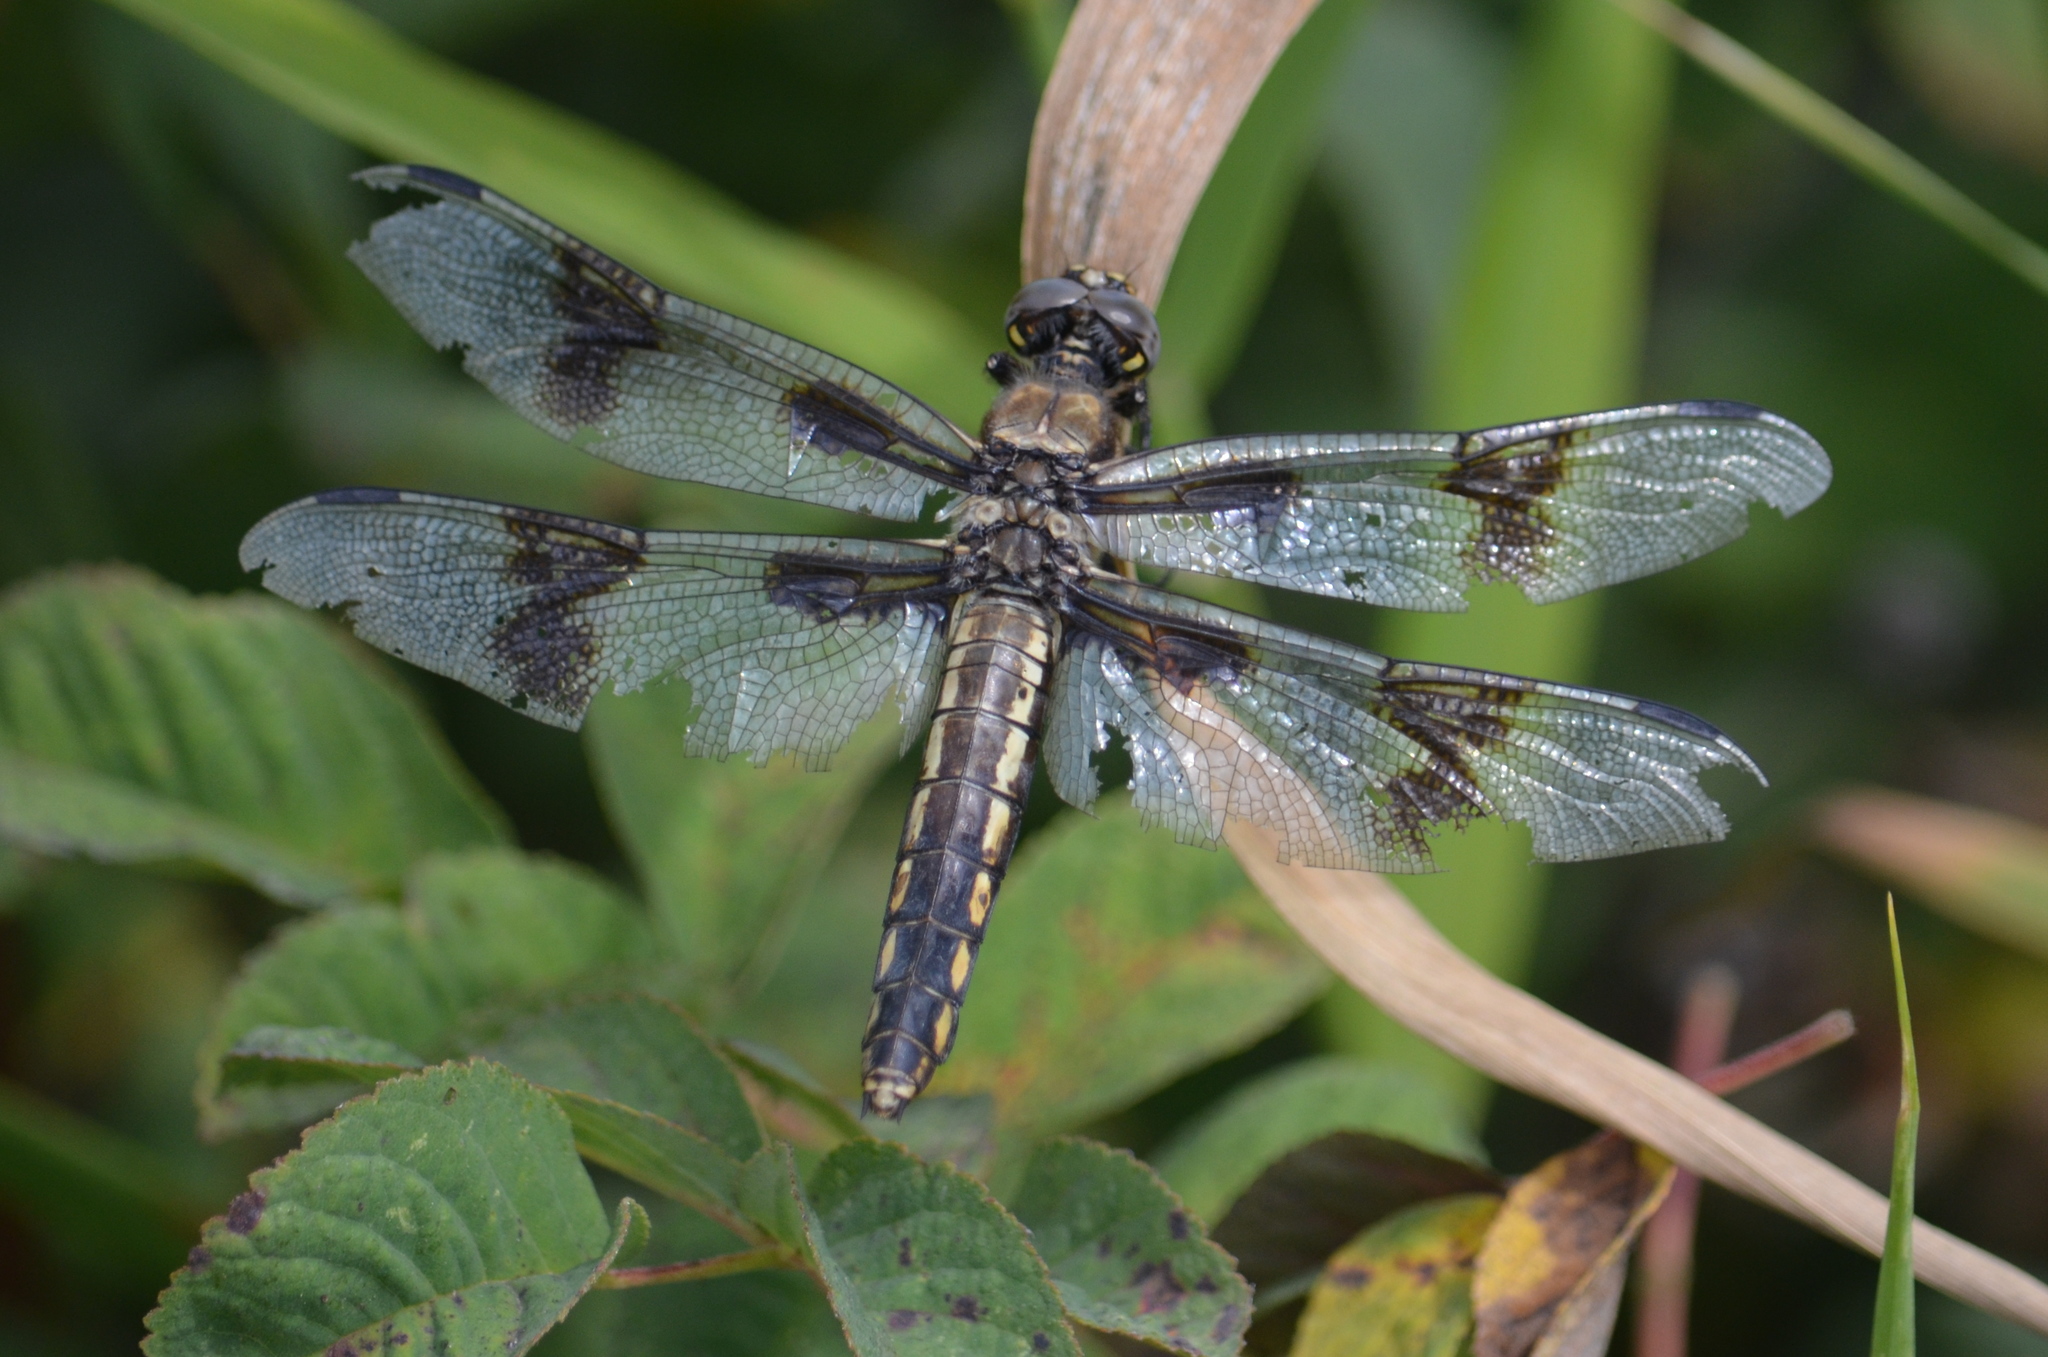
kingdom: Animalia
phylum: Arthropoda
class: Insecta
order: Odonata
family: Libellulidae
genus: Libellula
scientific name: Libellula forensis
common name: Eight-spotted skimmer
